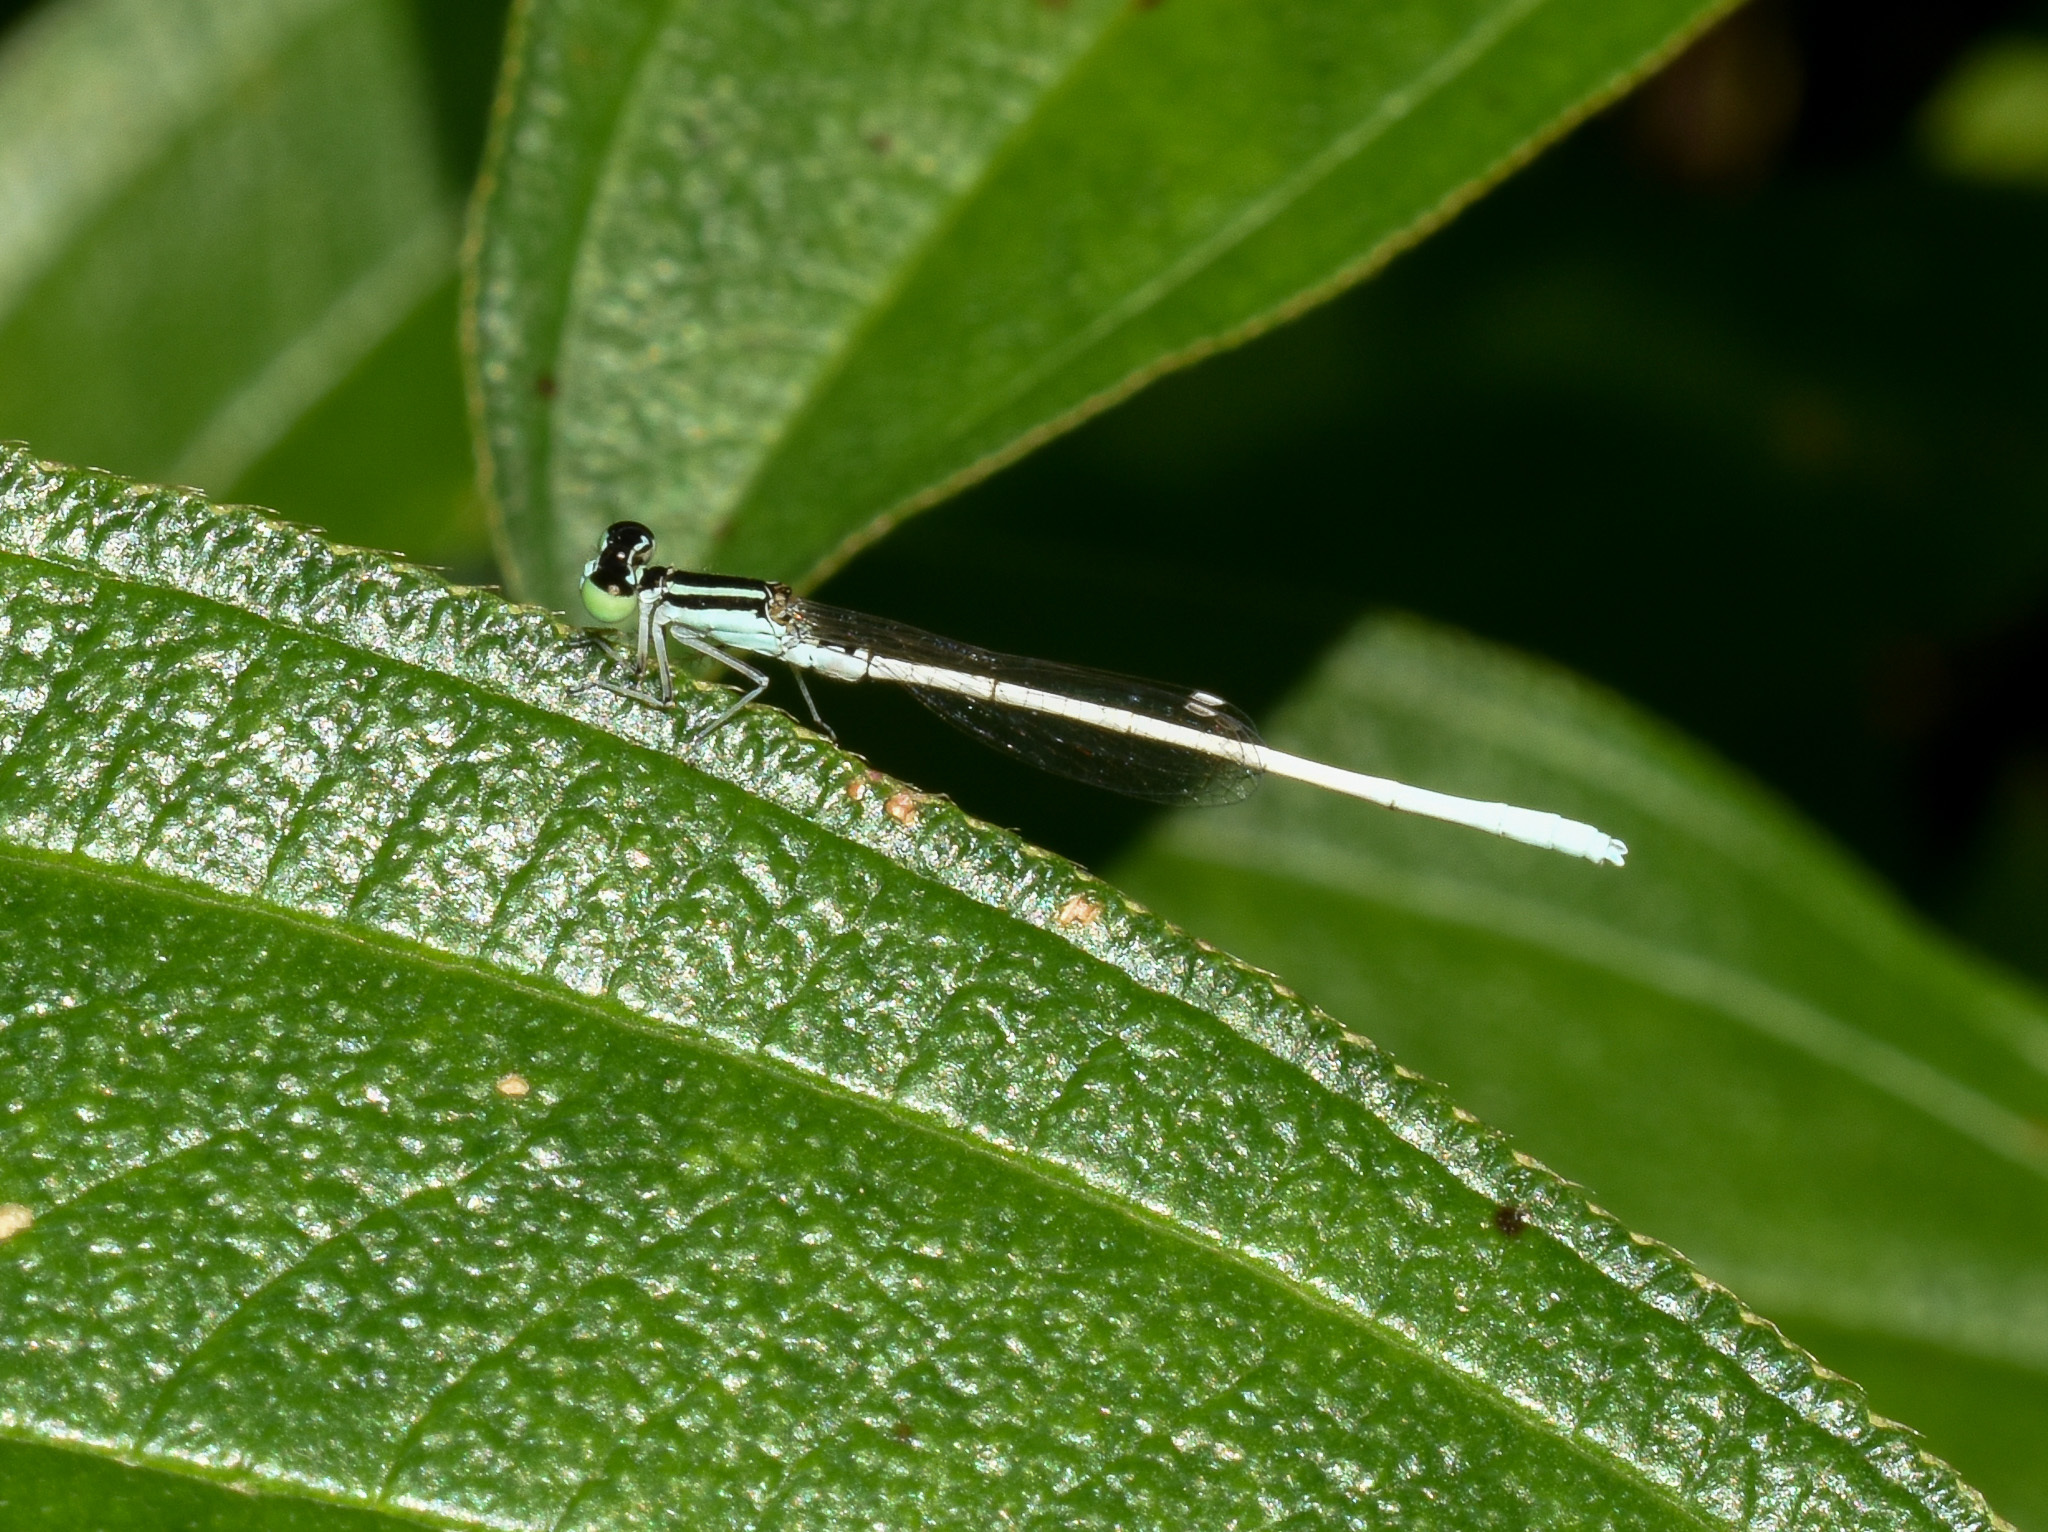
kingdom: Animalia
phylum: Arthropoda
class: Insecta
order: Odonata
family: Coenagrionidae
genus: Agriocnemis
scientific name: Agriocnemis lacteola
